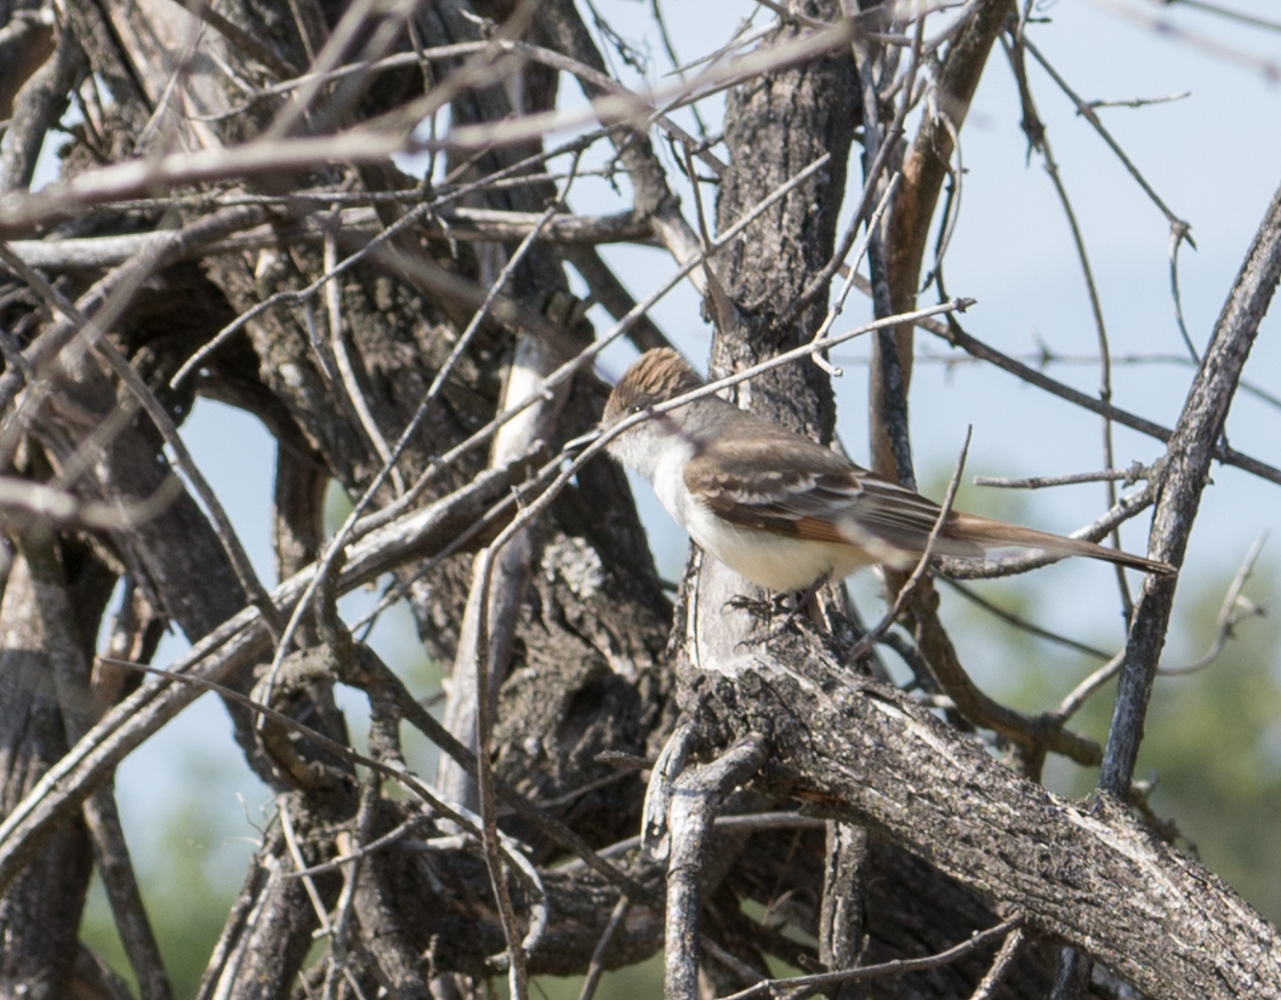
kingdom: Animalia
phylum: Chordata
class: Aves
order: Passeriformes
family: Tyrannidae
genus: Myiarchus
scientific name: Myiarchus cinerascens
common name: Ash-throated flycatcher
